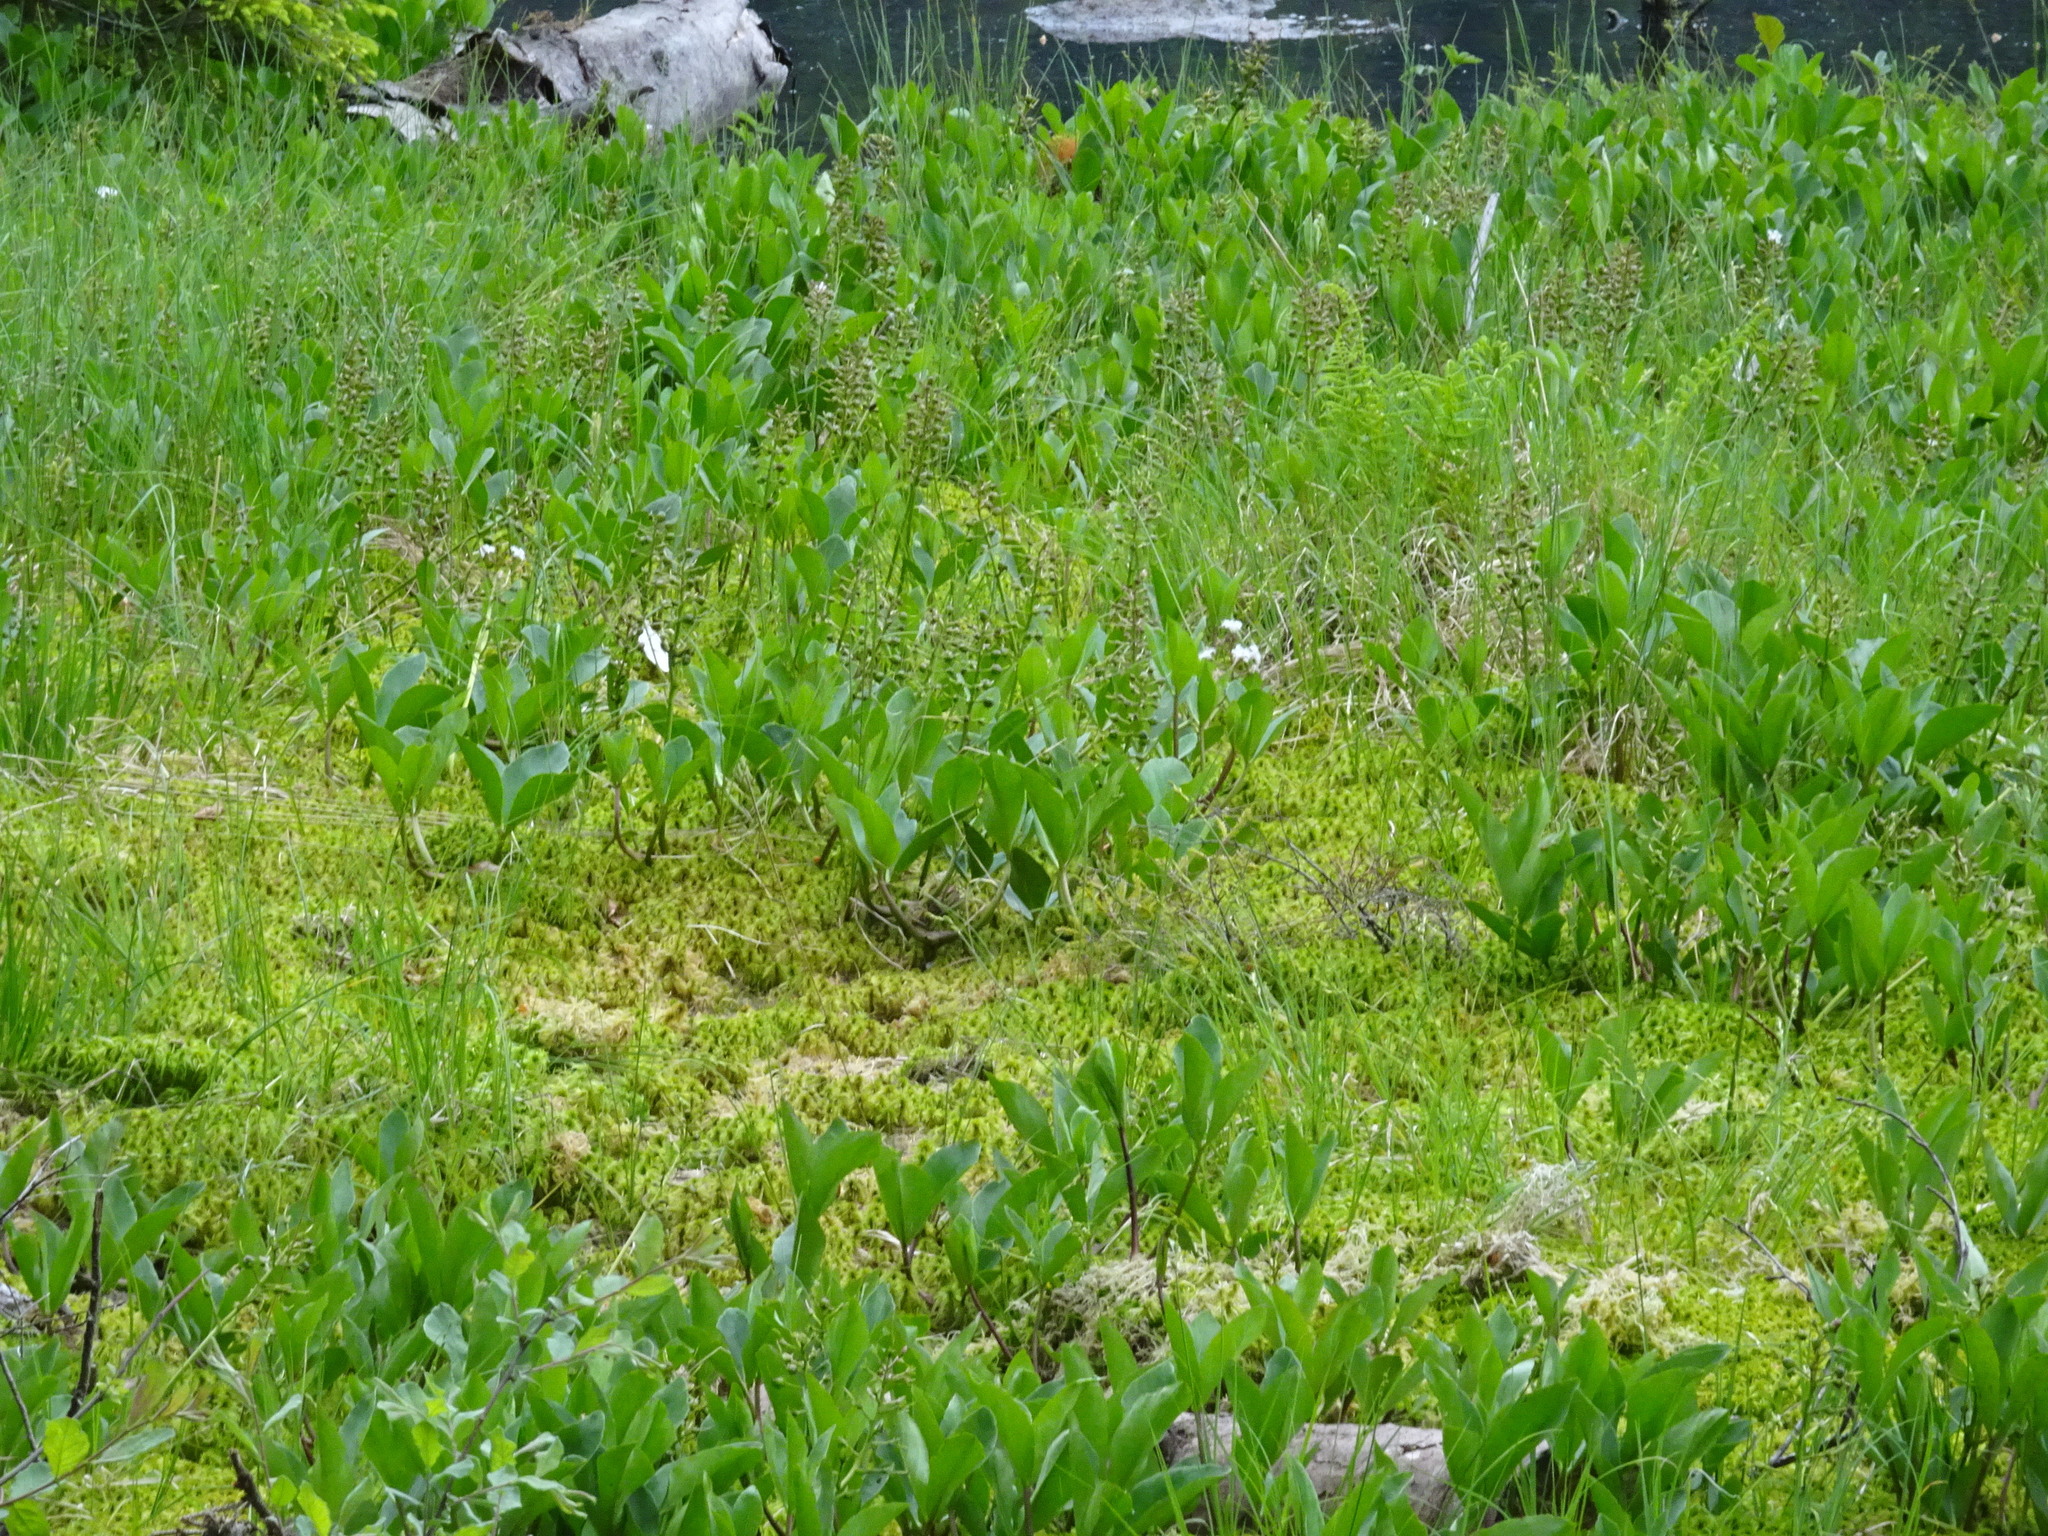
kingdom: Plantae
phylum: Tracheophyta
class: Magnoliopsida
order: Asterales
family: Menyanthaceae
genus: Menyanthes
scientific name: Menyanthes trifoliata
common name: Bogbean
